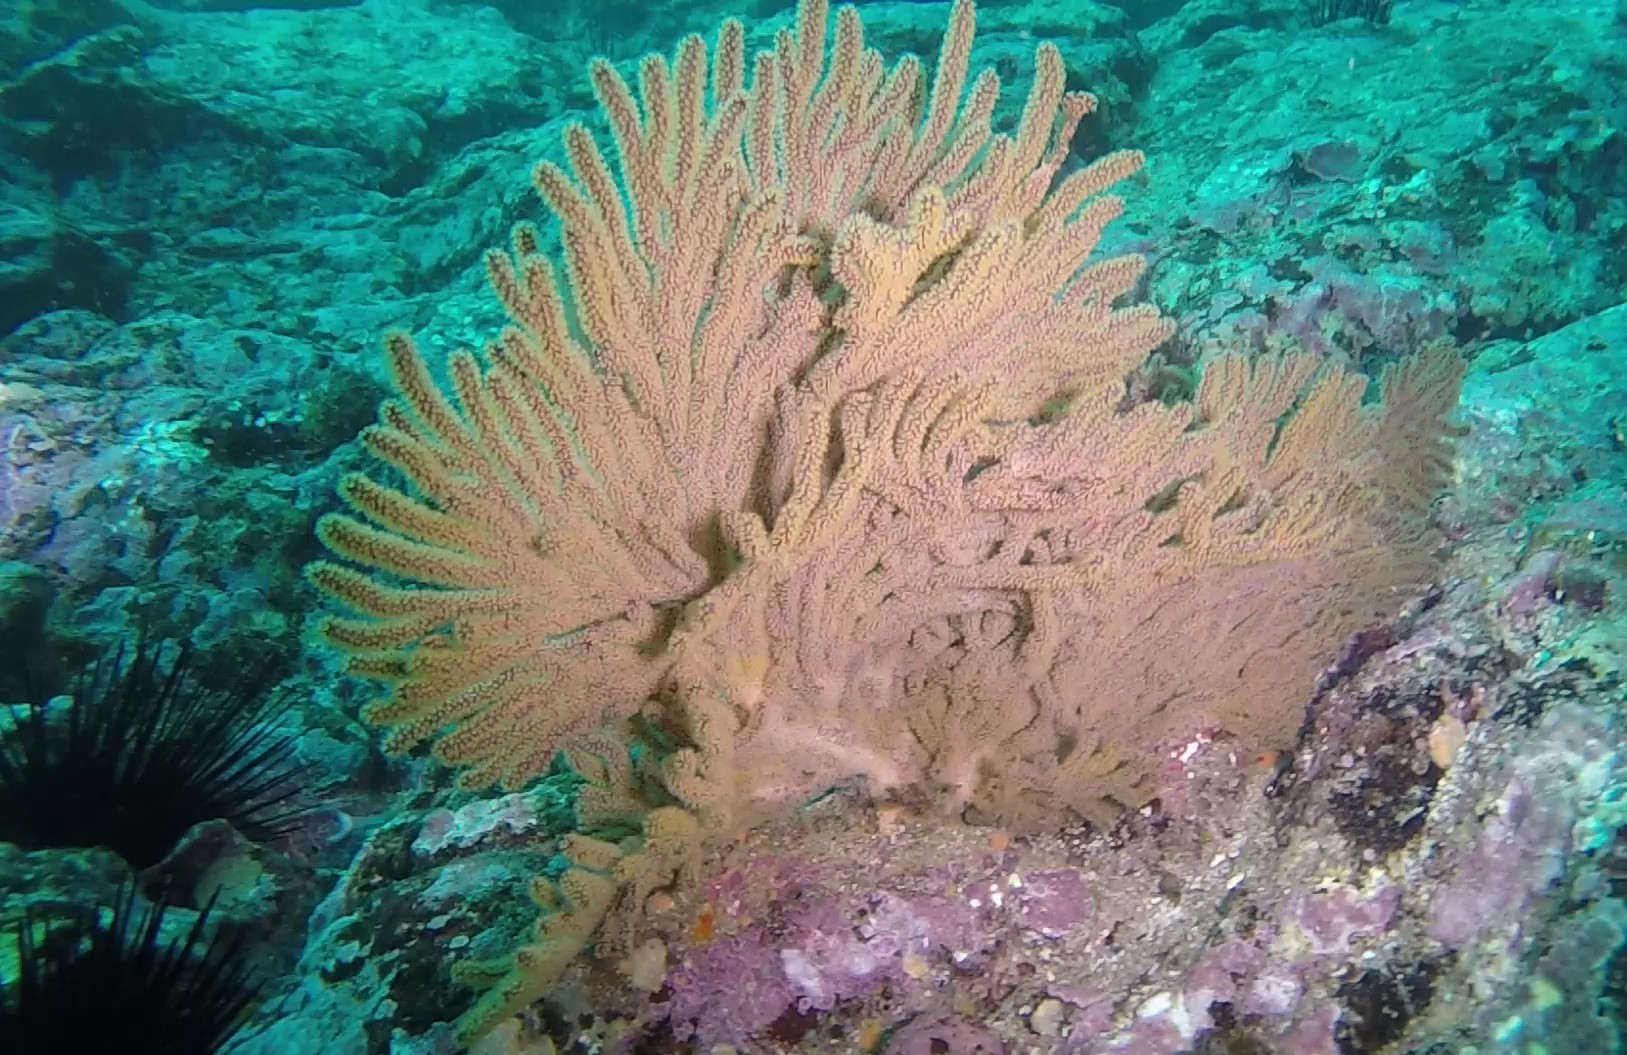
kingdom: Animalia
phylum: Cnidaria
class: Anthozoa
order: Malacalcyonacea
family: Plexauridae
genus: Muricea
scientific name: Muricea californica
